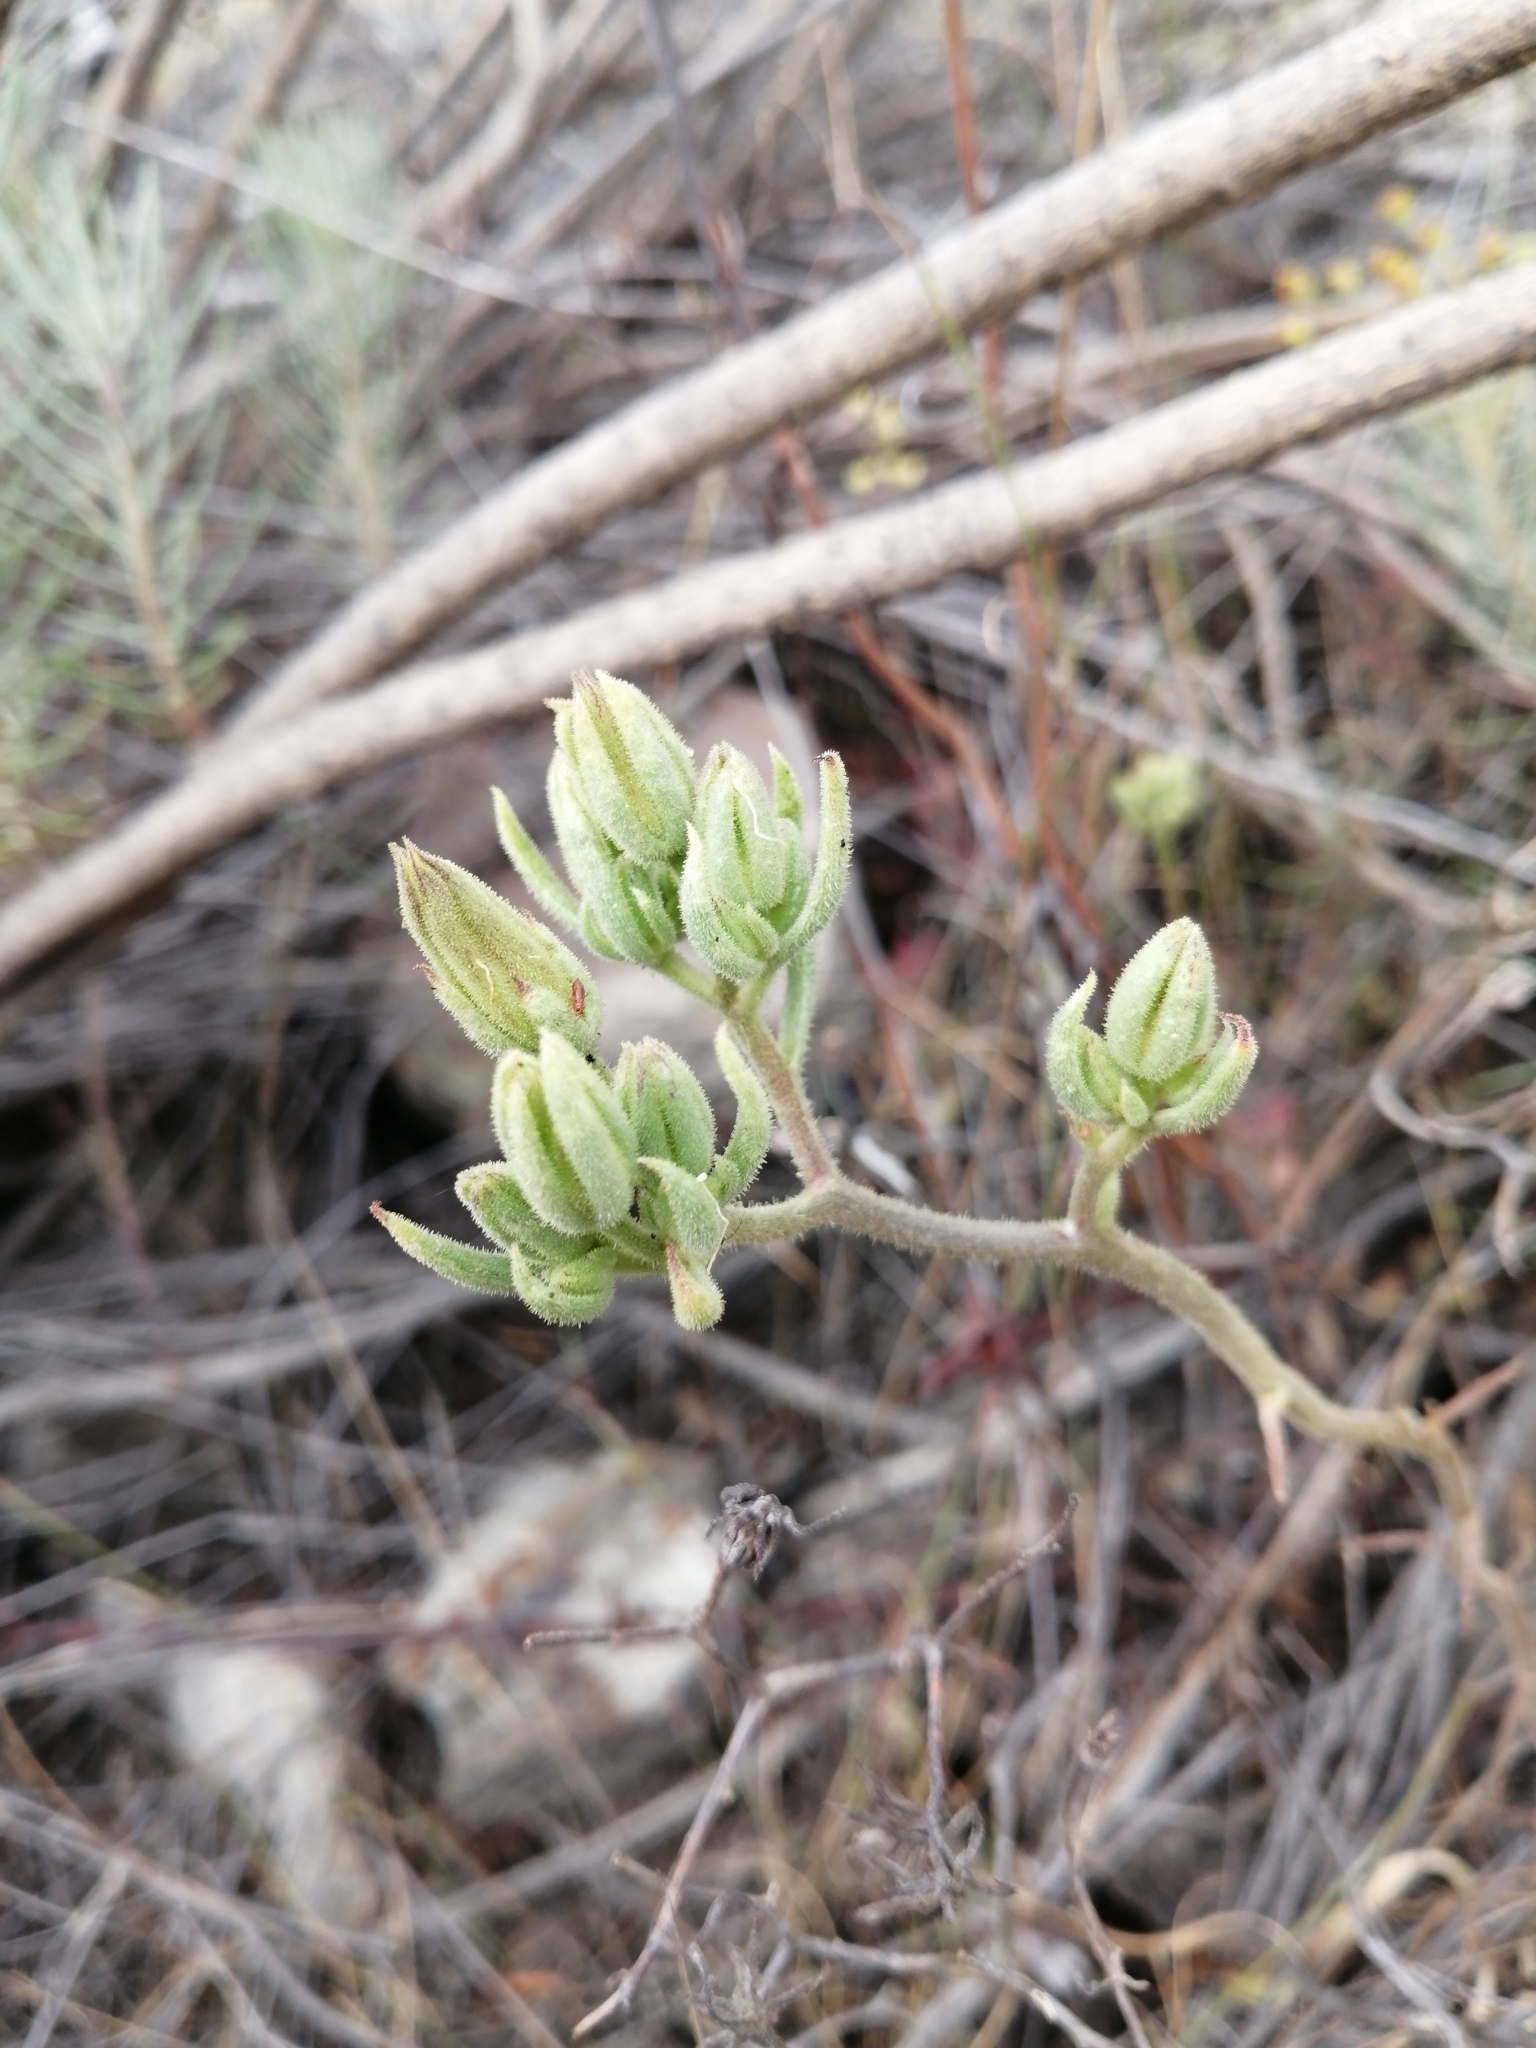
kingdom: Plantae
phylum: Tracheophyta
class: Magnoliopsida
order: Saxifragales
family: Crassulaceae
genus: Tylecodon
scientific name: Tylecodon ventricosus
